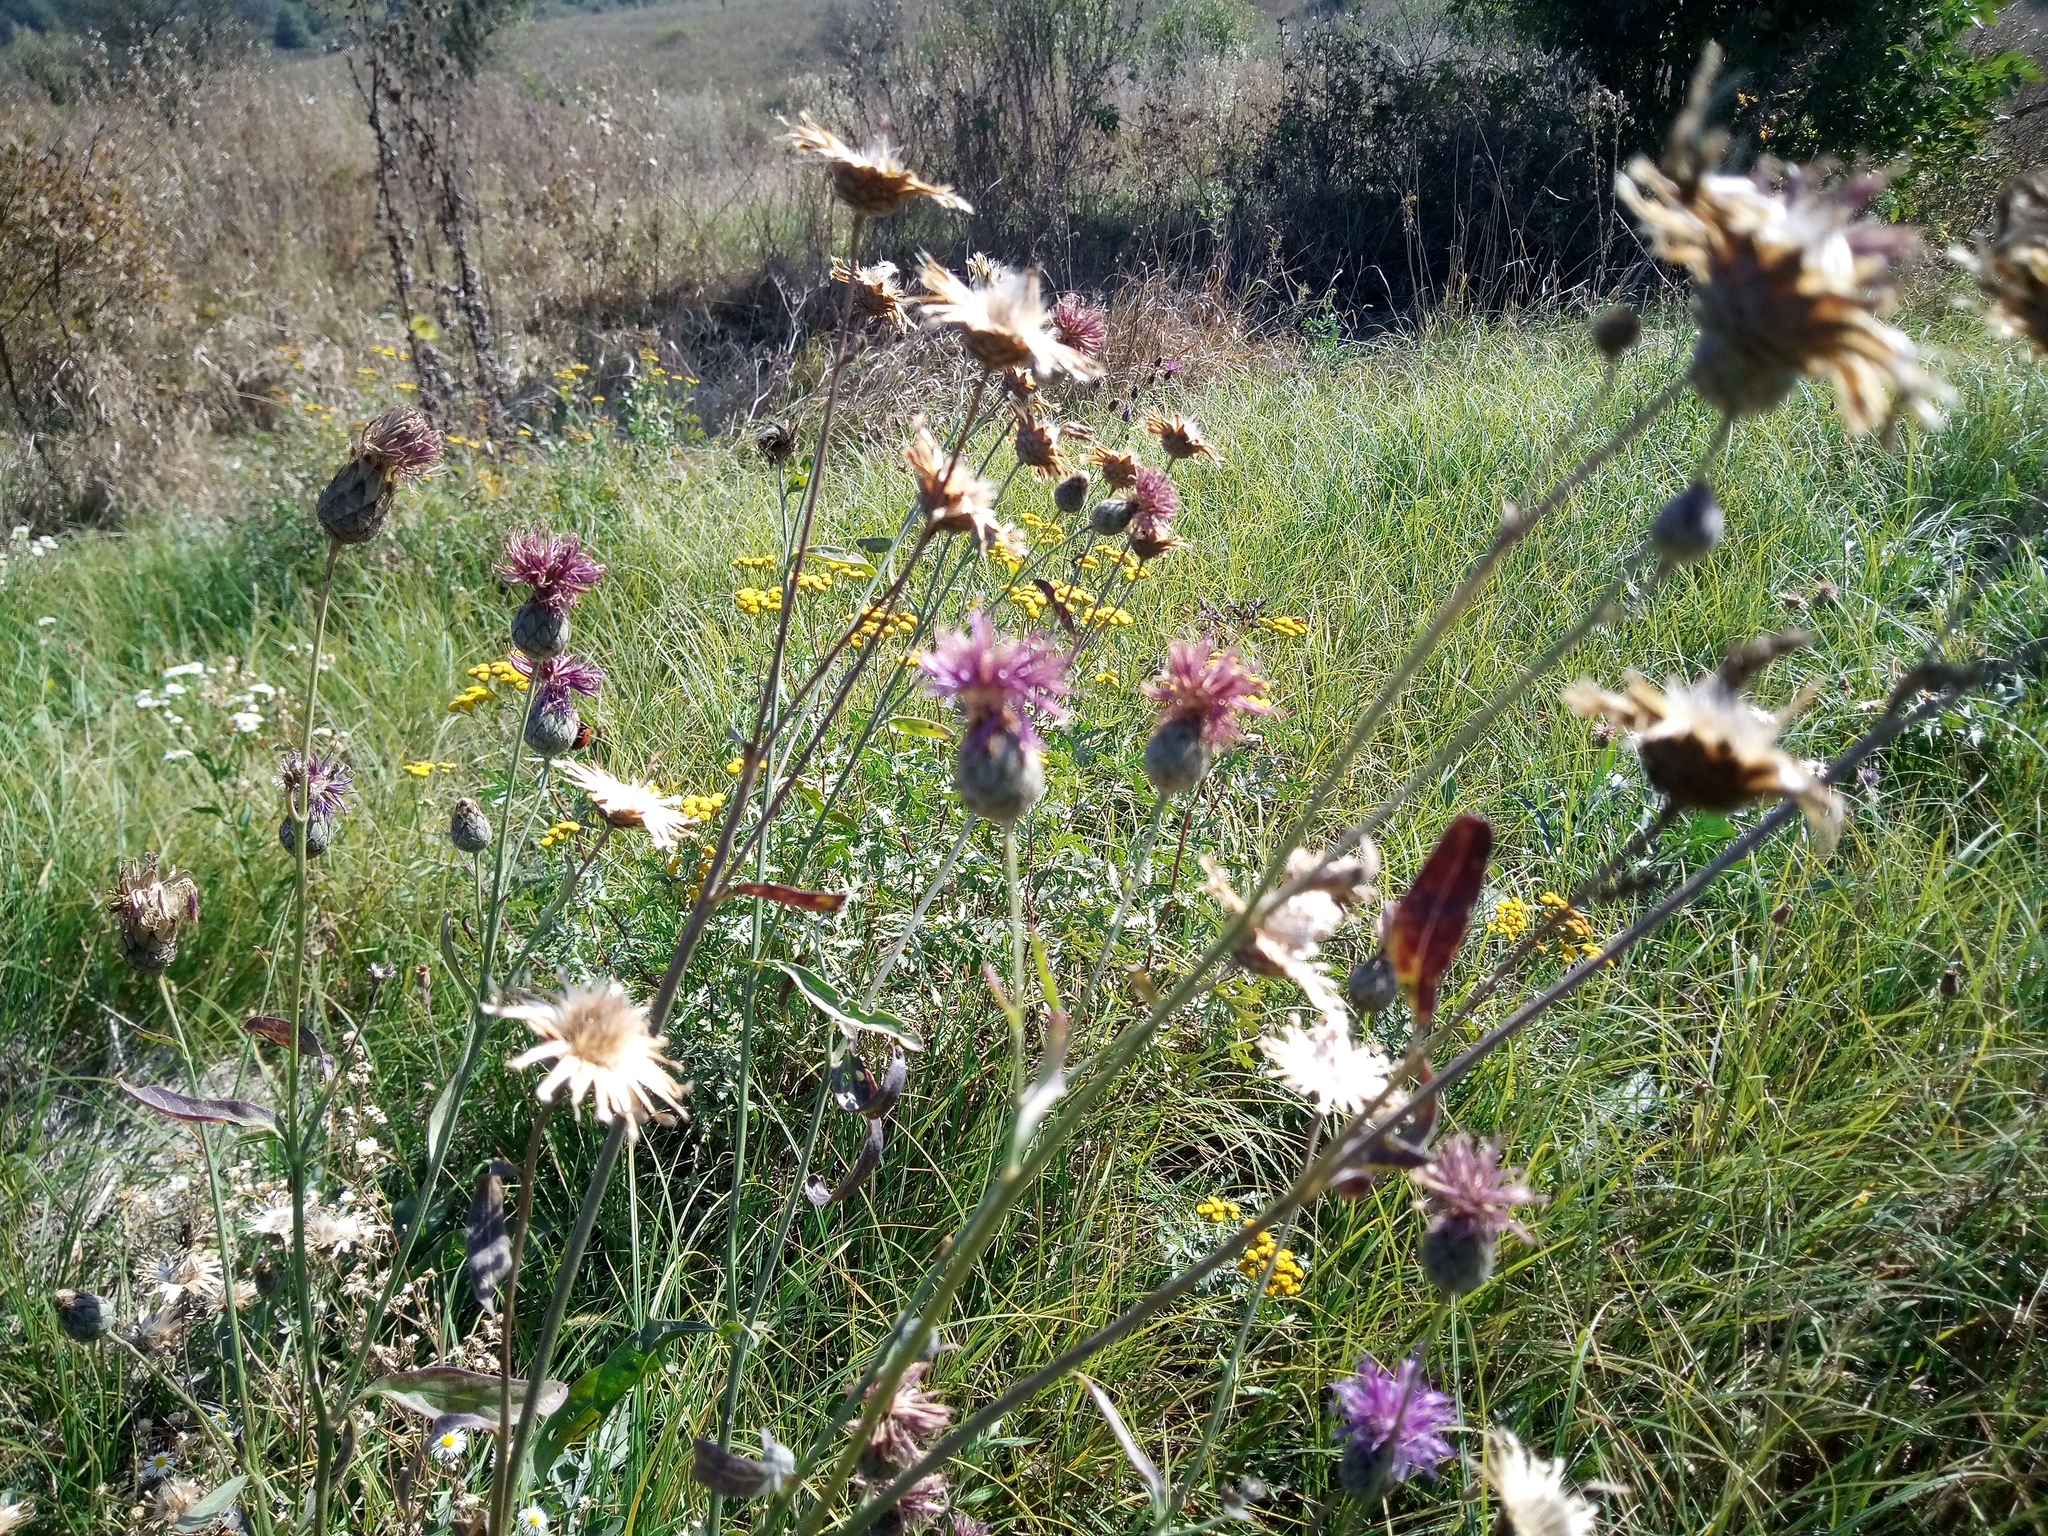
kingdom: Plantae
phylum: Tracheophyta
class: Magnoliopsida
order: Asterales
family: Asteraceae
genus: Centaurea
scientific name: Centaurea scabiosa
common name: Greater knapweed
